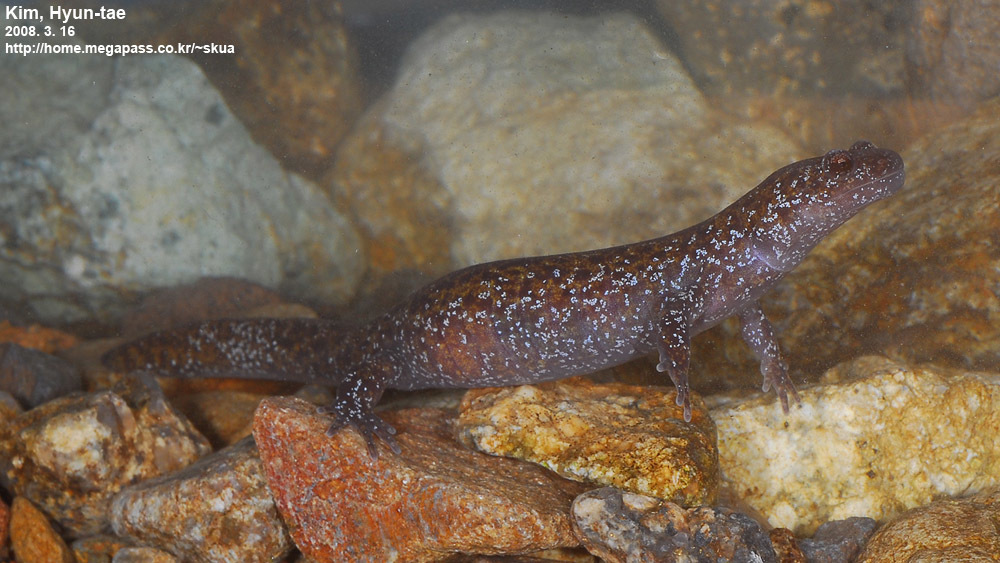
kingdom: Animalia
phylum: Chordata
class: Amphibia
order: Caudata
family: Hynobiidae
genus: Hynobius
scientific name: Hynobius leechii
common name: Gensan salamander
